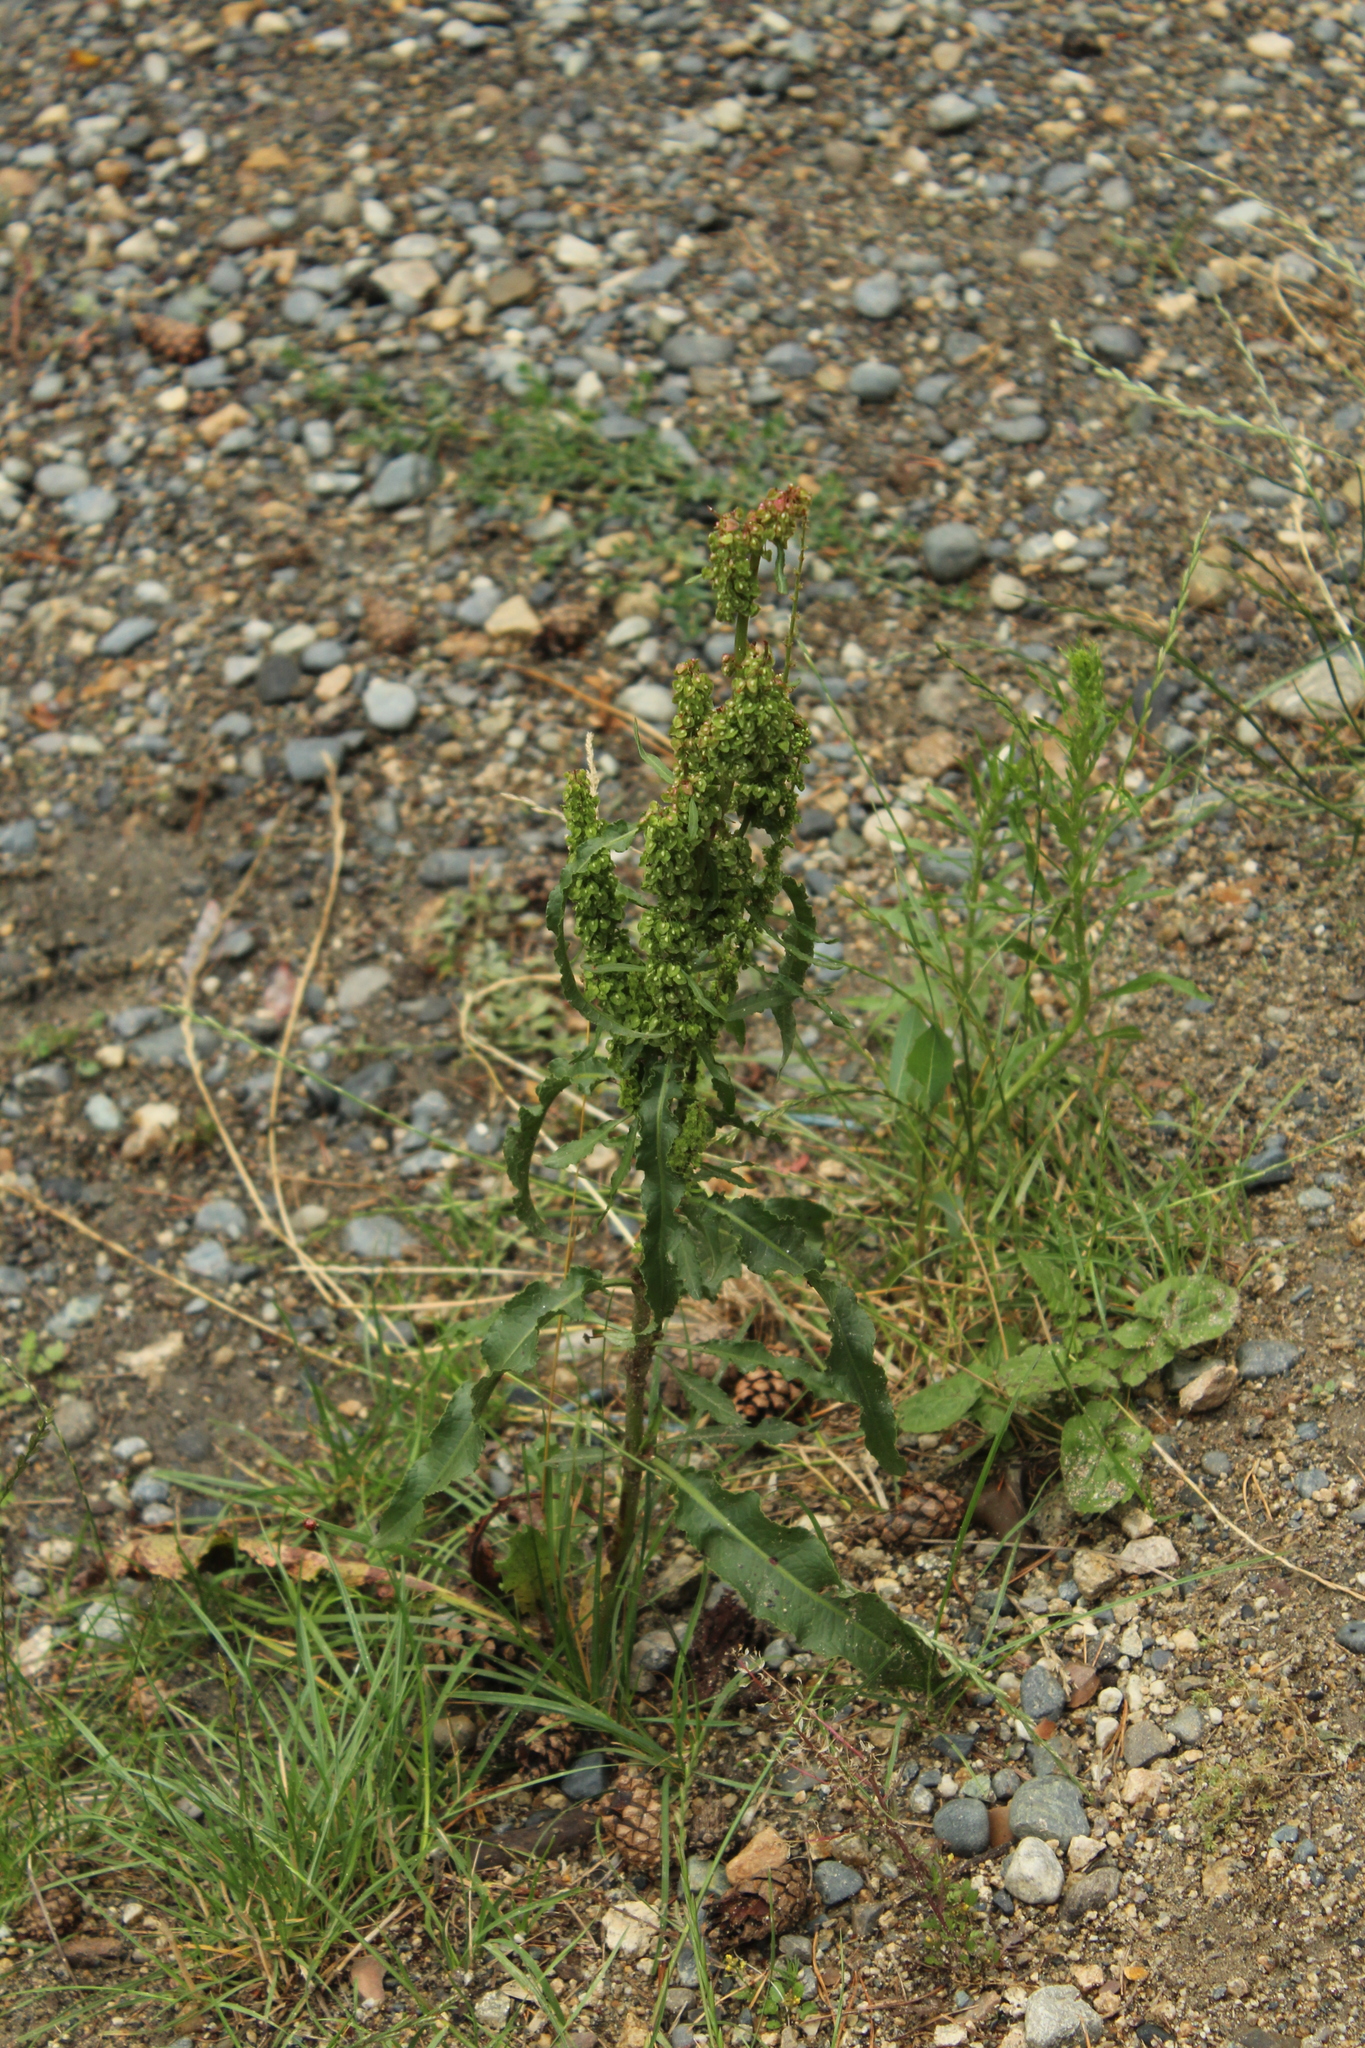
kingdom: Plantae
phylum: Tracheophyta
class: Magnoliopsida
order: Caryophyllales
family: Polygonaceae
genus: Rumex
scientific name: Rumex crispus
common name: Curled dock
